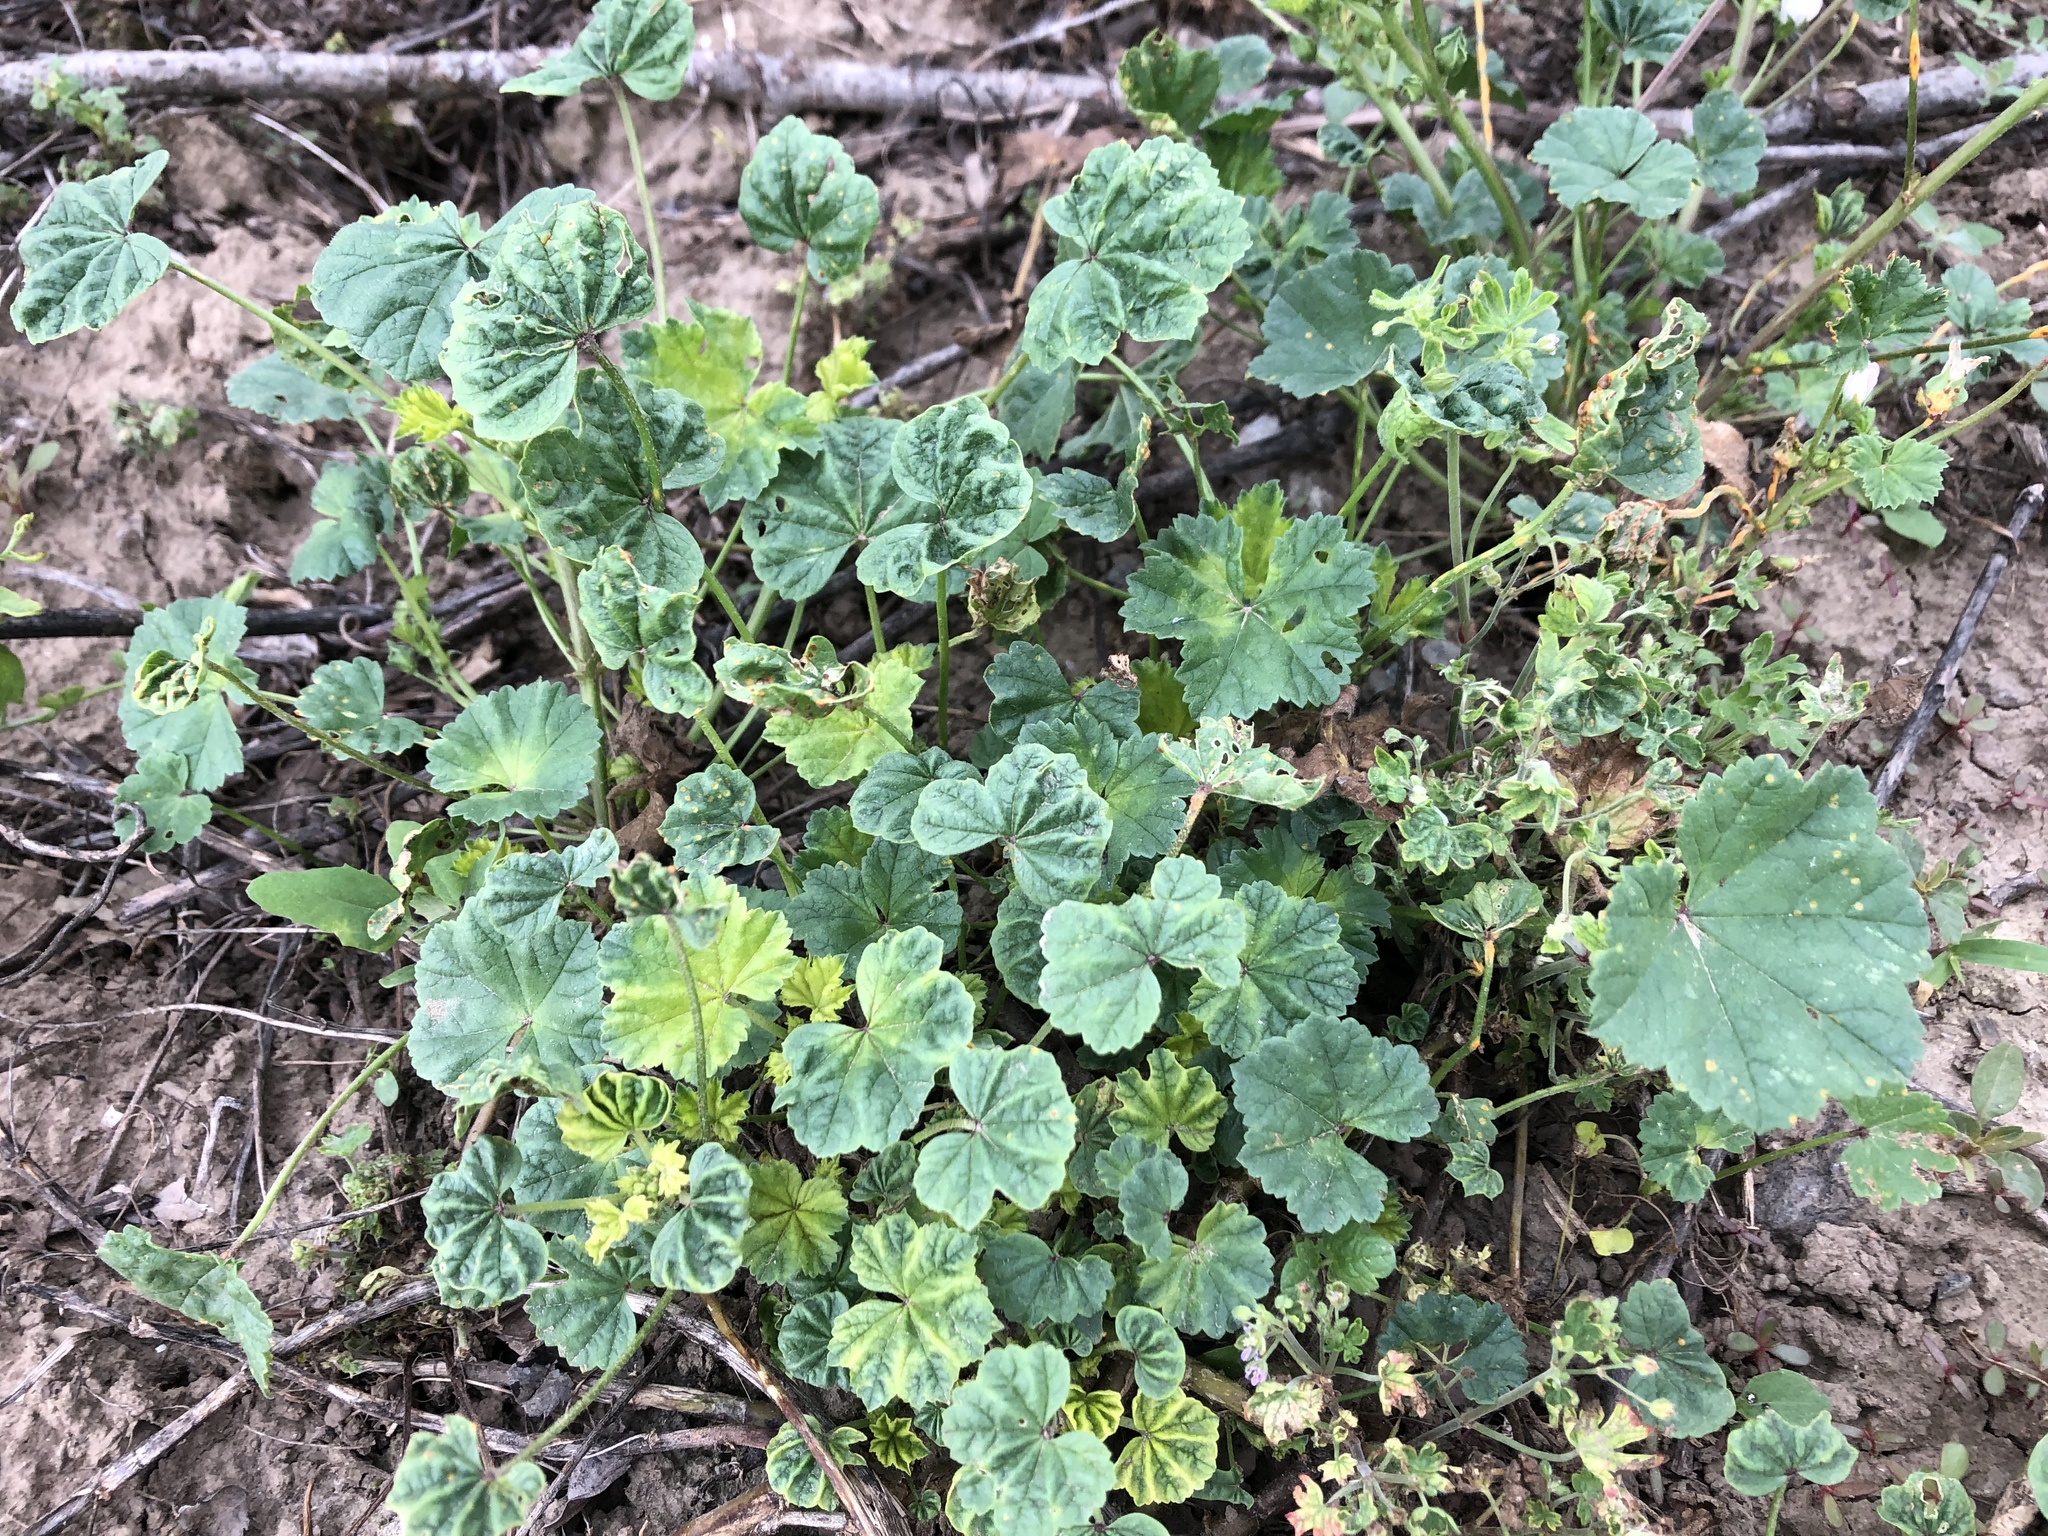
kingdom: Plantae
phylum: Tracheophyta
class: Magnoliopsida
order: Malvales
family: Malvaceae
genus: Malva
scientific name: Malva neglecta
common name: Common mallow
